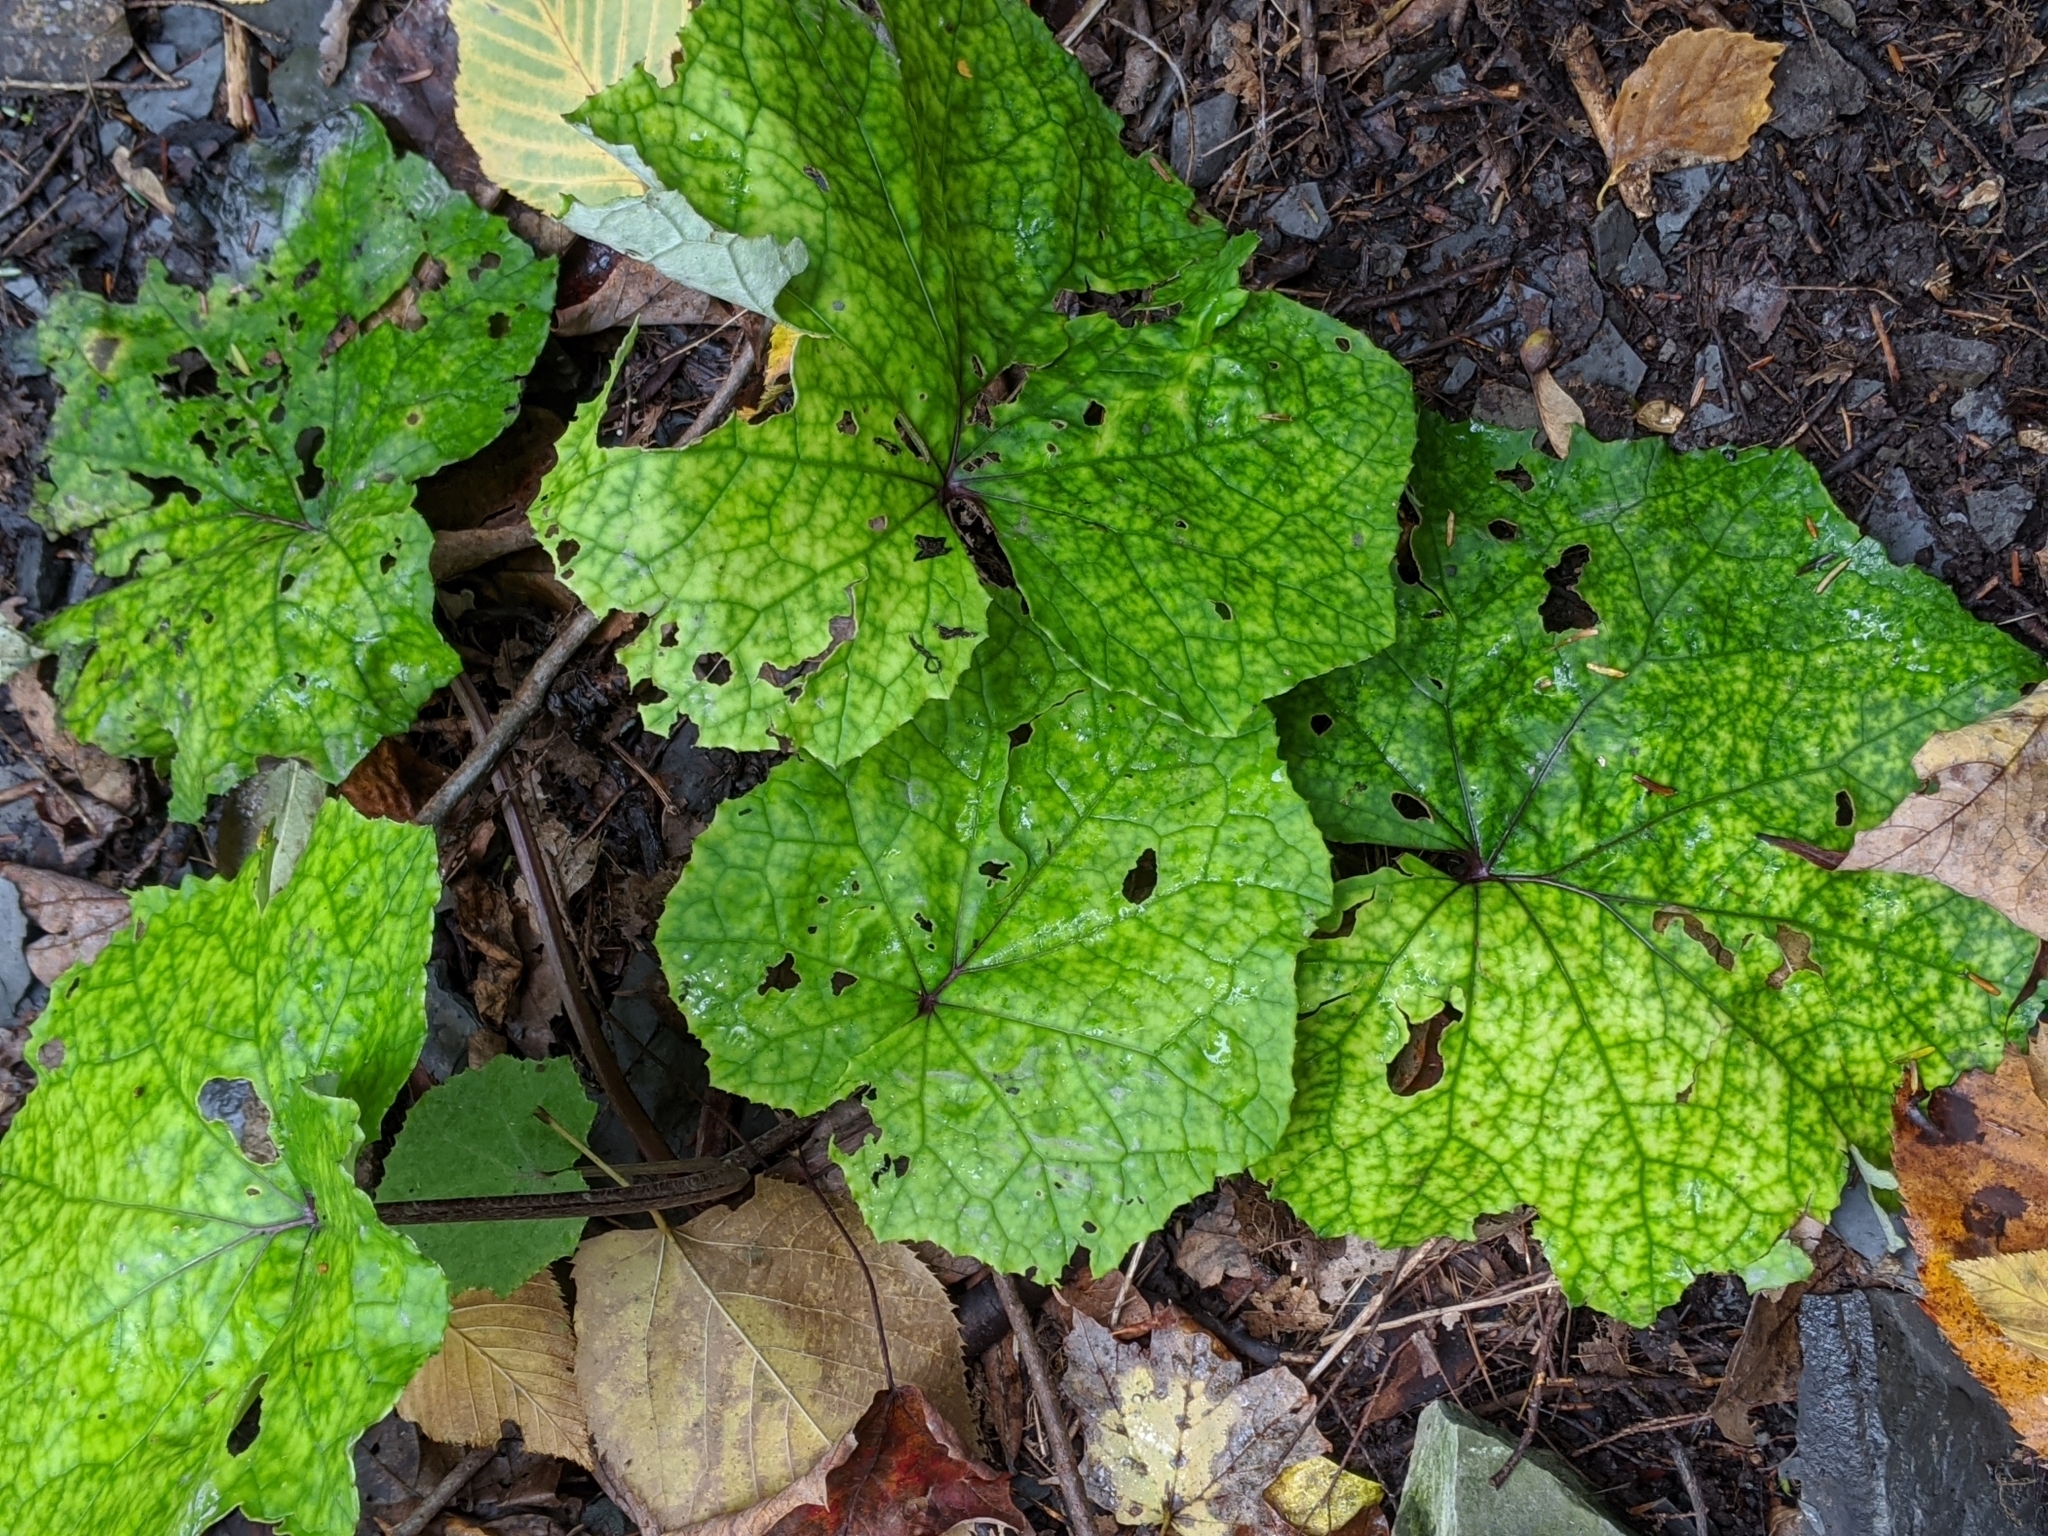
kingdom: Plantae
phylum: Tracheophyta
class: Magnoliopsida
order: Asterales
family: Asteraceae
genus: Tussilago
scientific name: Tussilago farfara
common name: Coltsfoot
